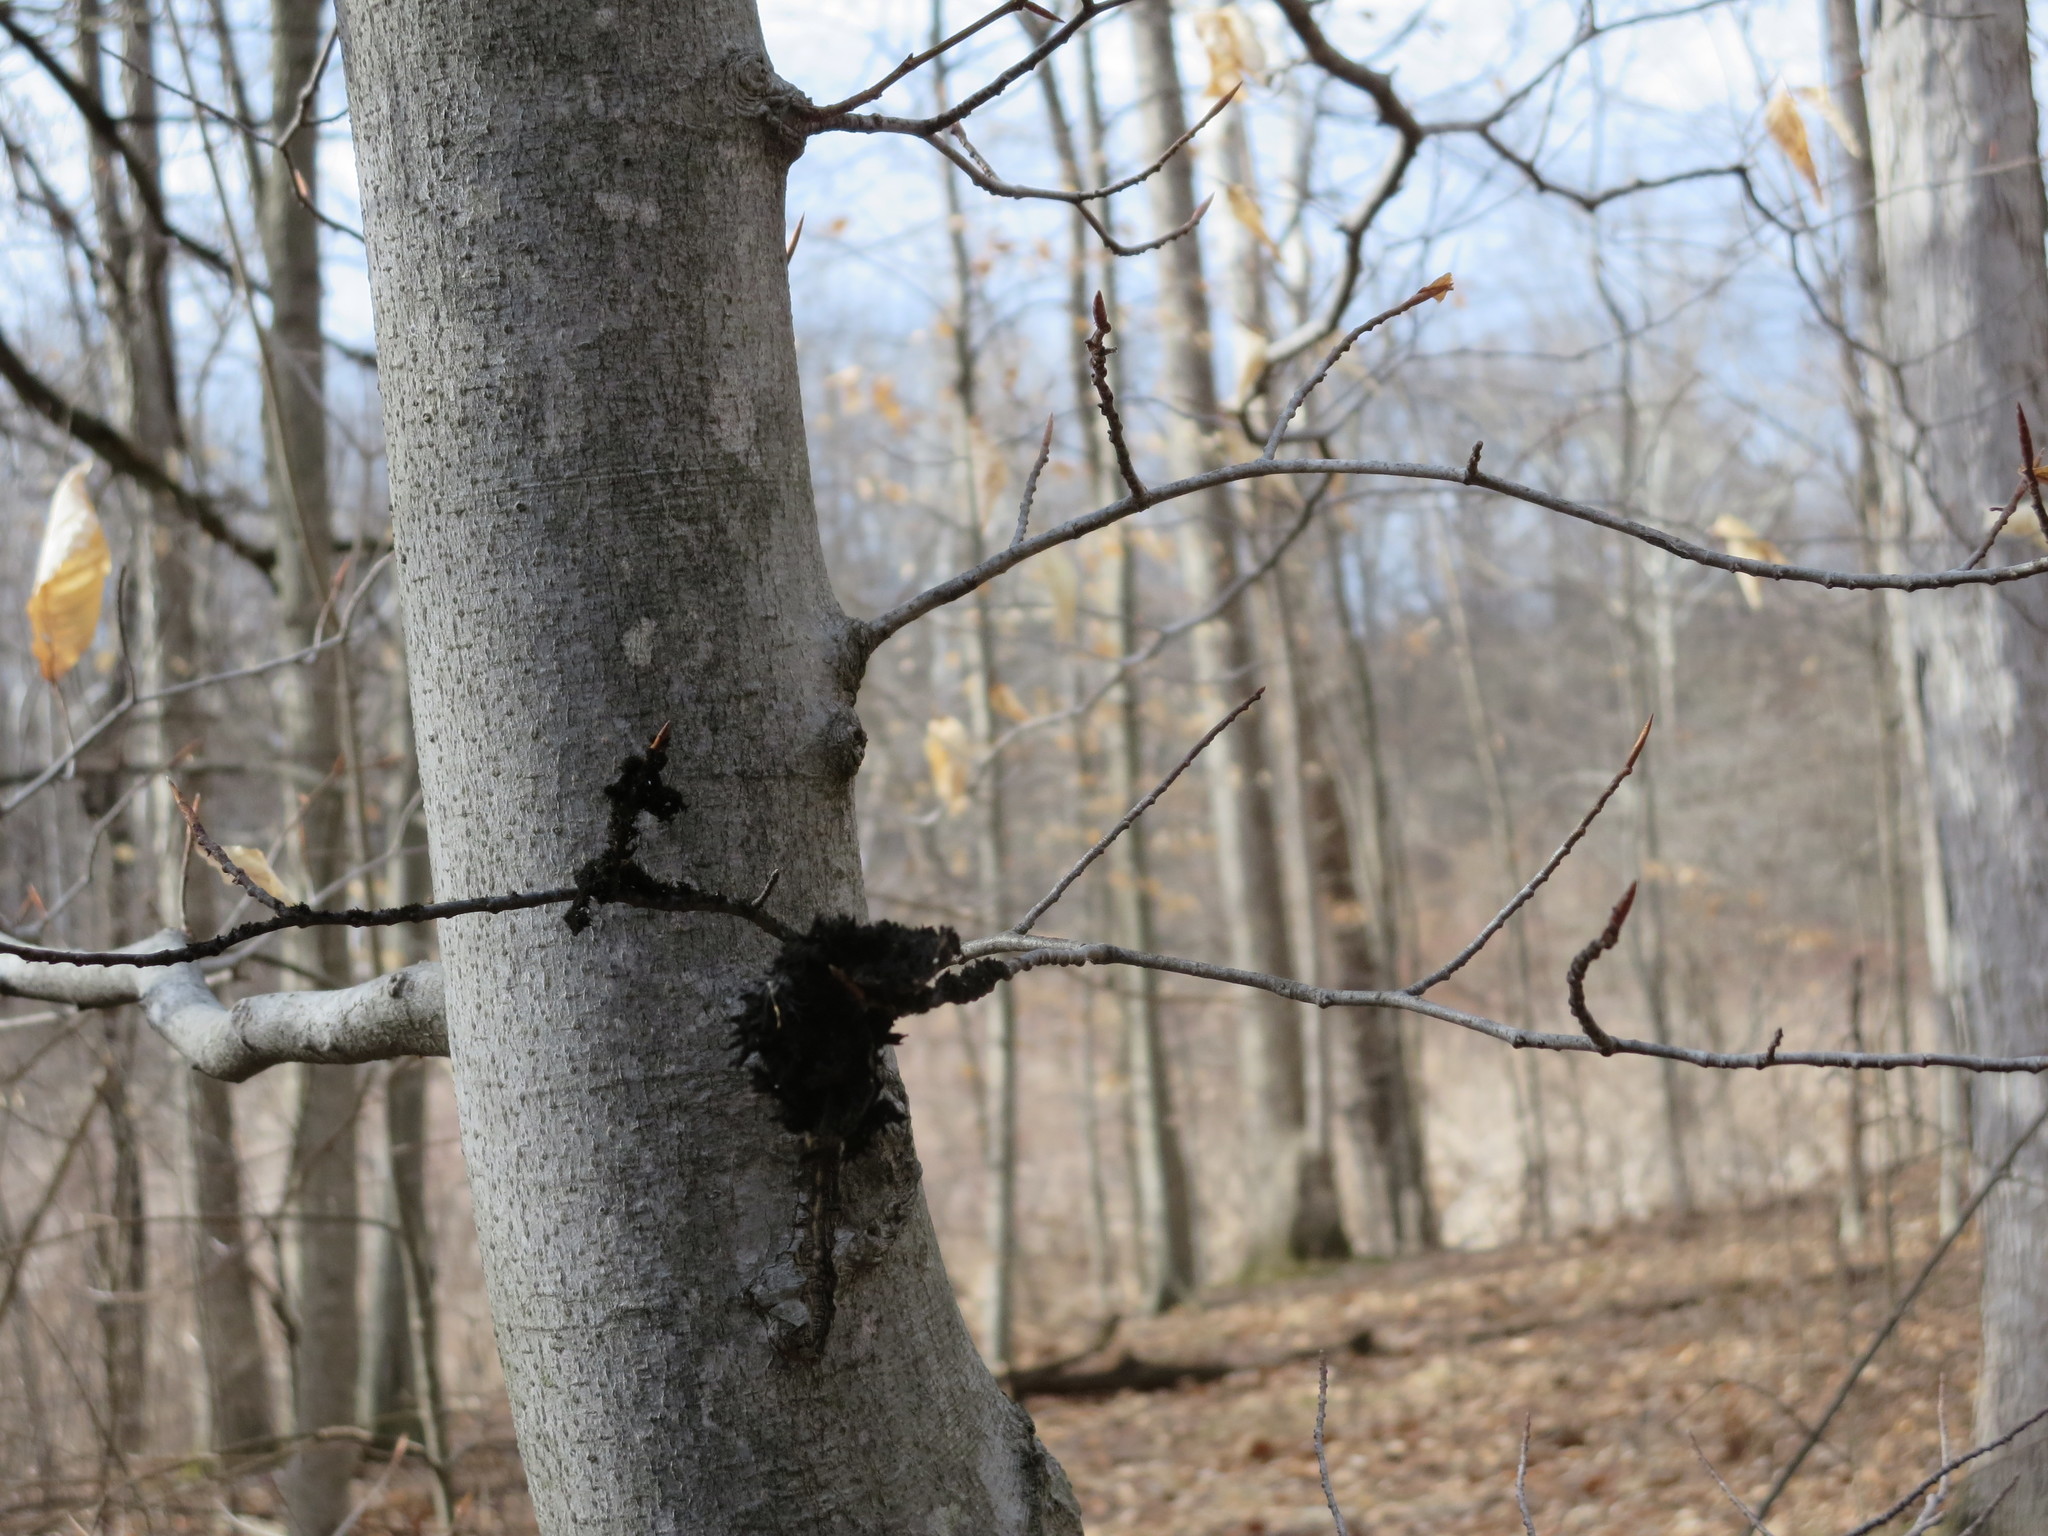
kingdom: Fungi
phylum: Ascomycota
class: Dothideomycetes
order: Capnodiales
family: Capnodiaceae
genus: Scorias
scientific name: Scorias spongiosa
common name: Black sooty mold
